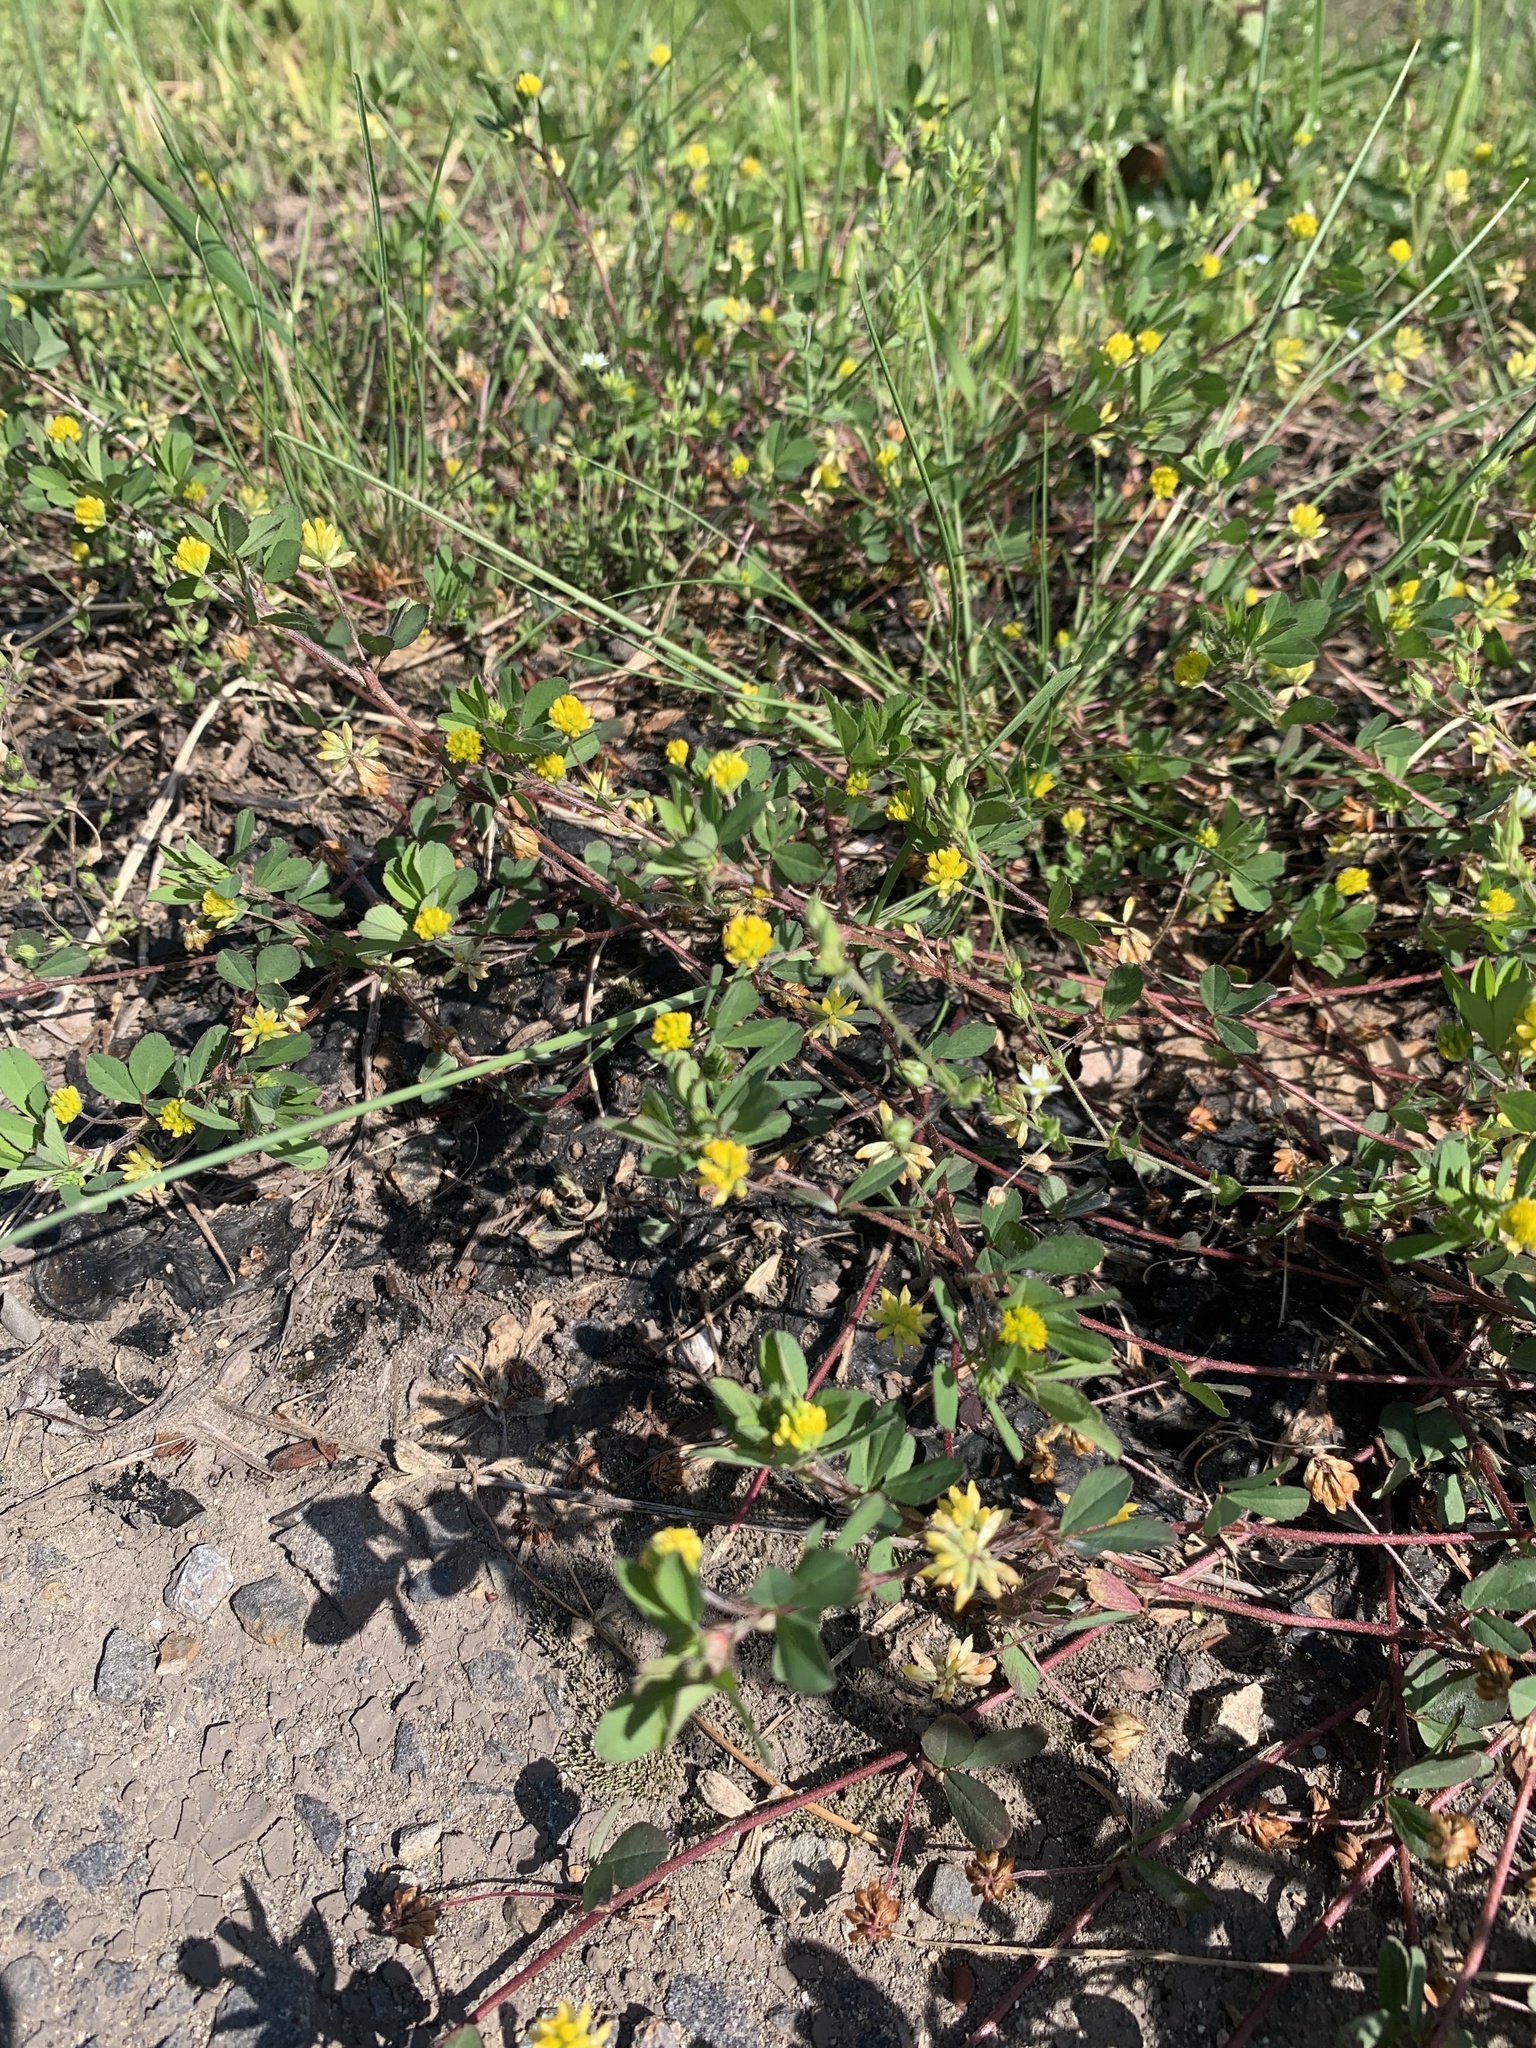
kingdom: Plantae
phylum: Tracheophyta
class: Magnoliopsida
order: Fabales
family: Fabaceae
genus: Trifolium
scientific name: Trifolium dubium
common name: Suckling clover
